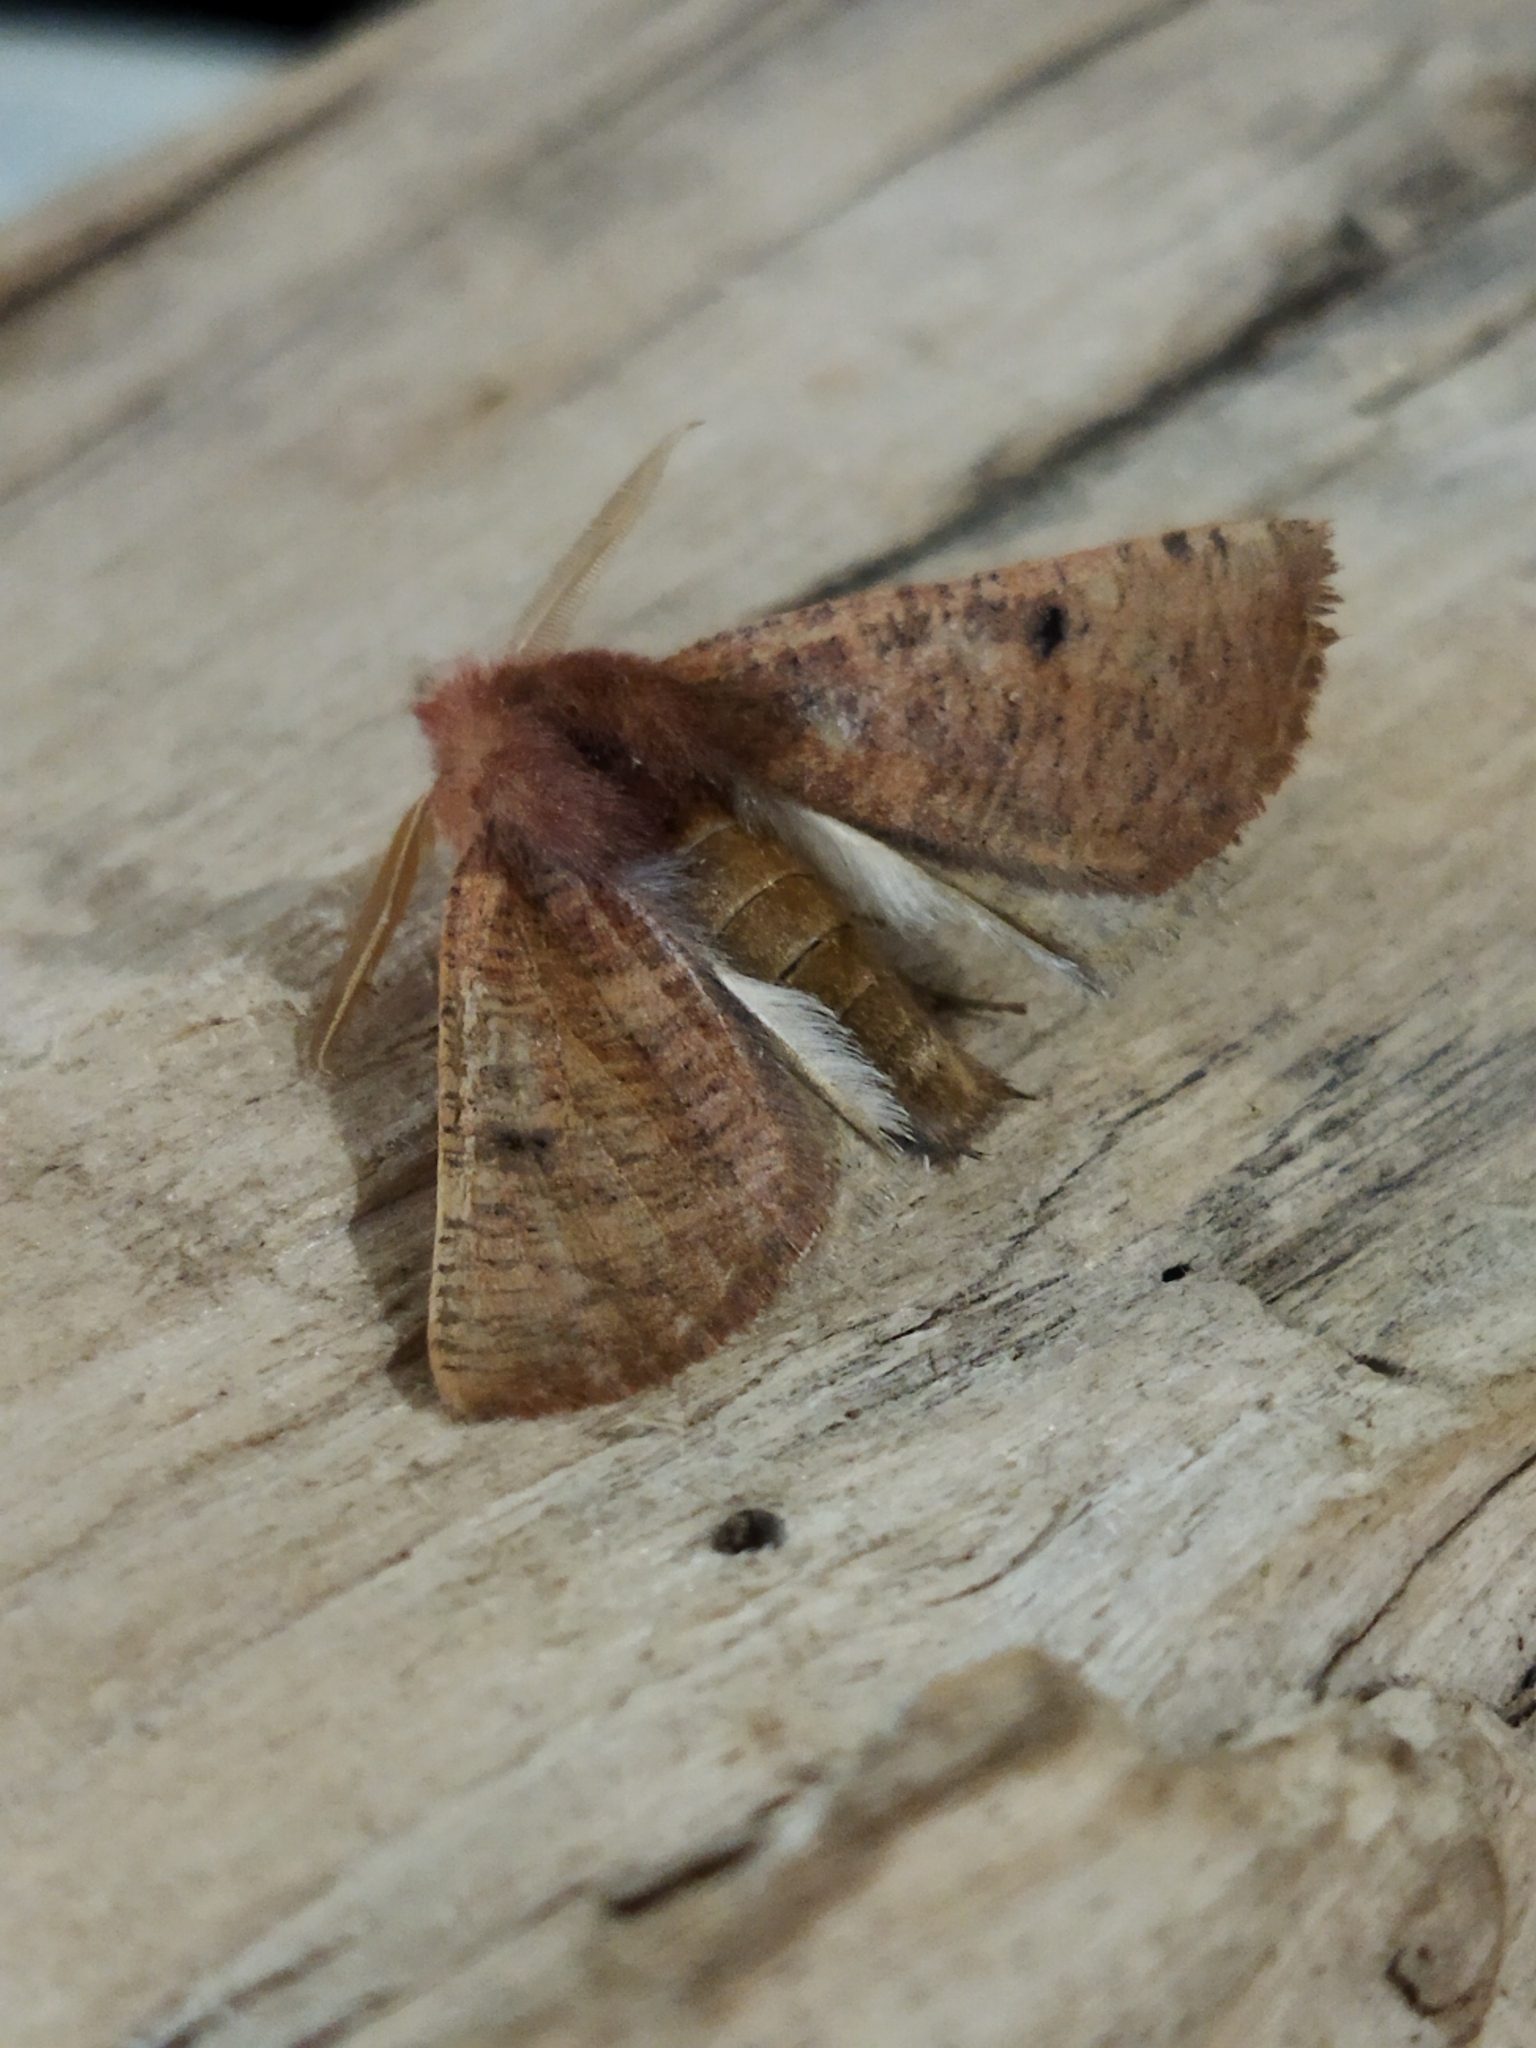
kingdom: Animalia
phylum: Arthropoda
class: Insecta
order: Lepidoptera
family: Geometridae
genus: Dasycorsa
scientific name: Dasycorsa modesta
